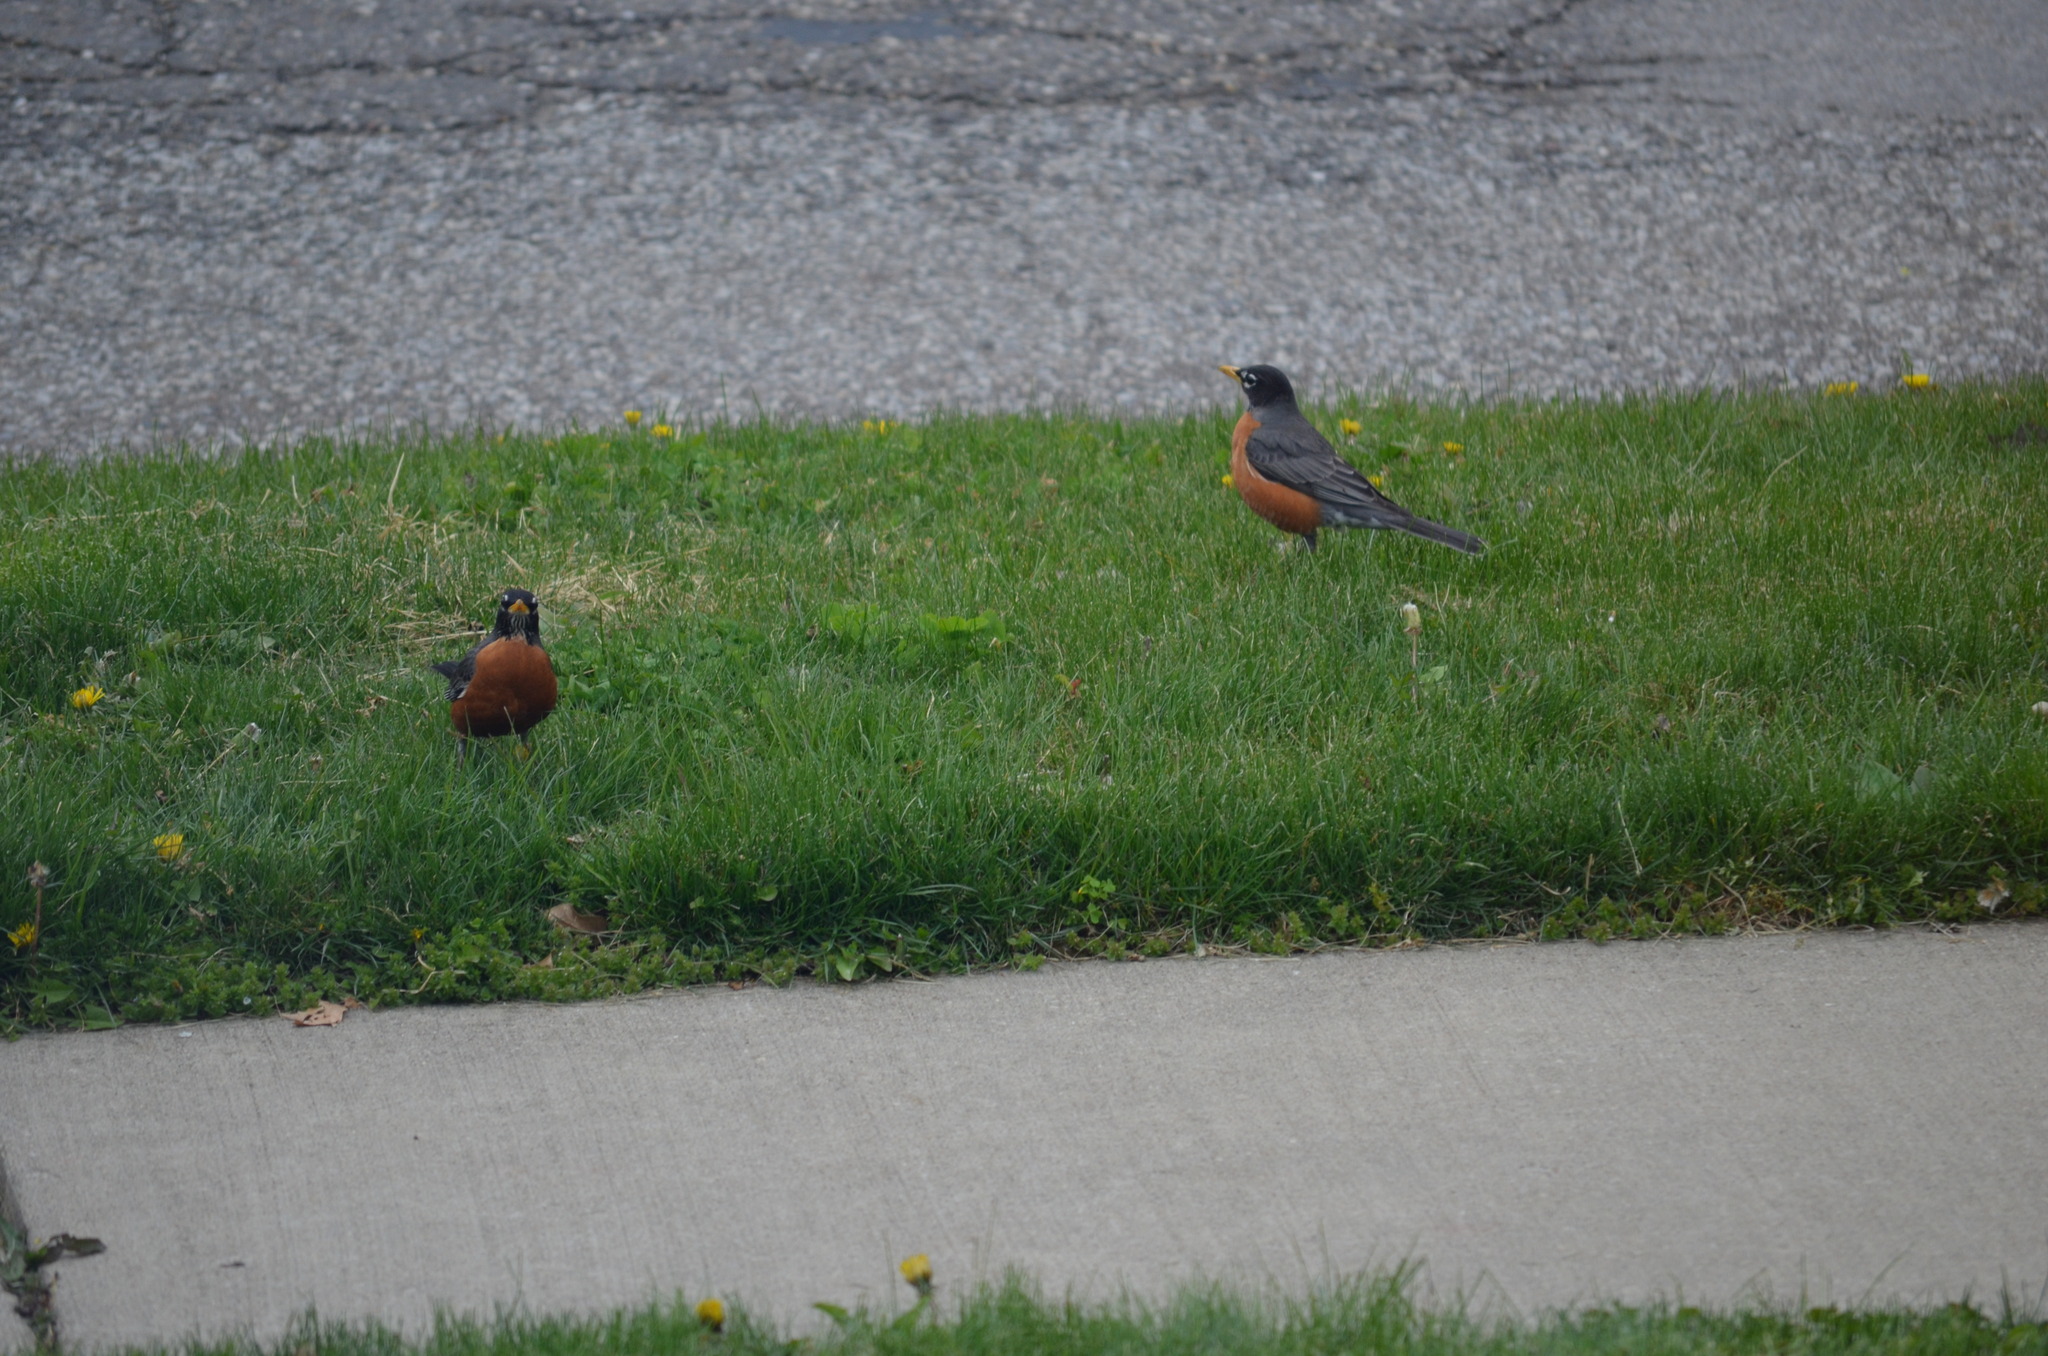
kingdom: Animalia
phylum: Chordata
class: Aves
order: Passeriformes
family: Turdidae
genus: Turdus
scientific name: Turdus migratorius
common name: American robin
